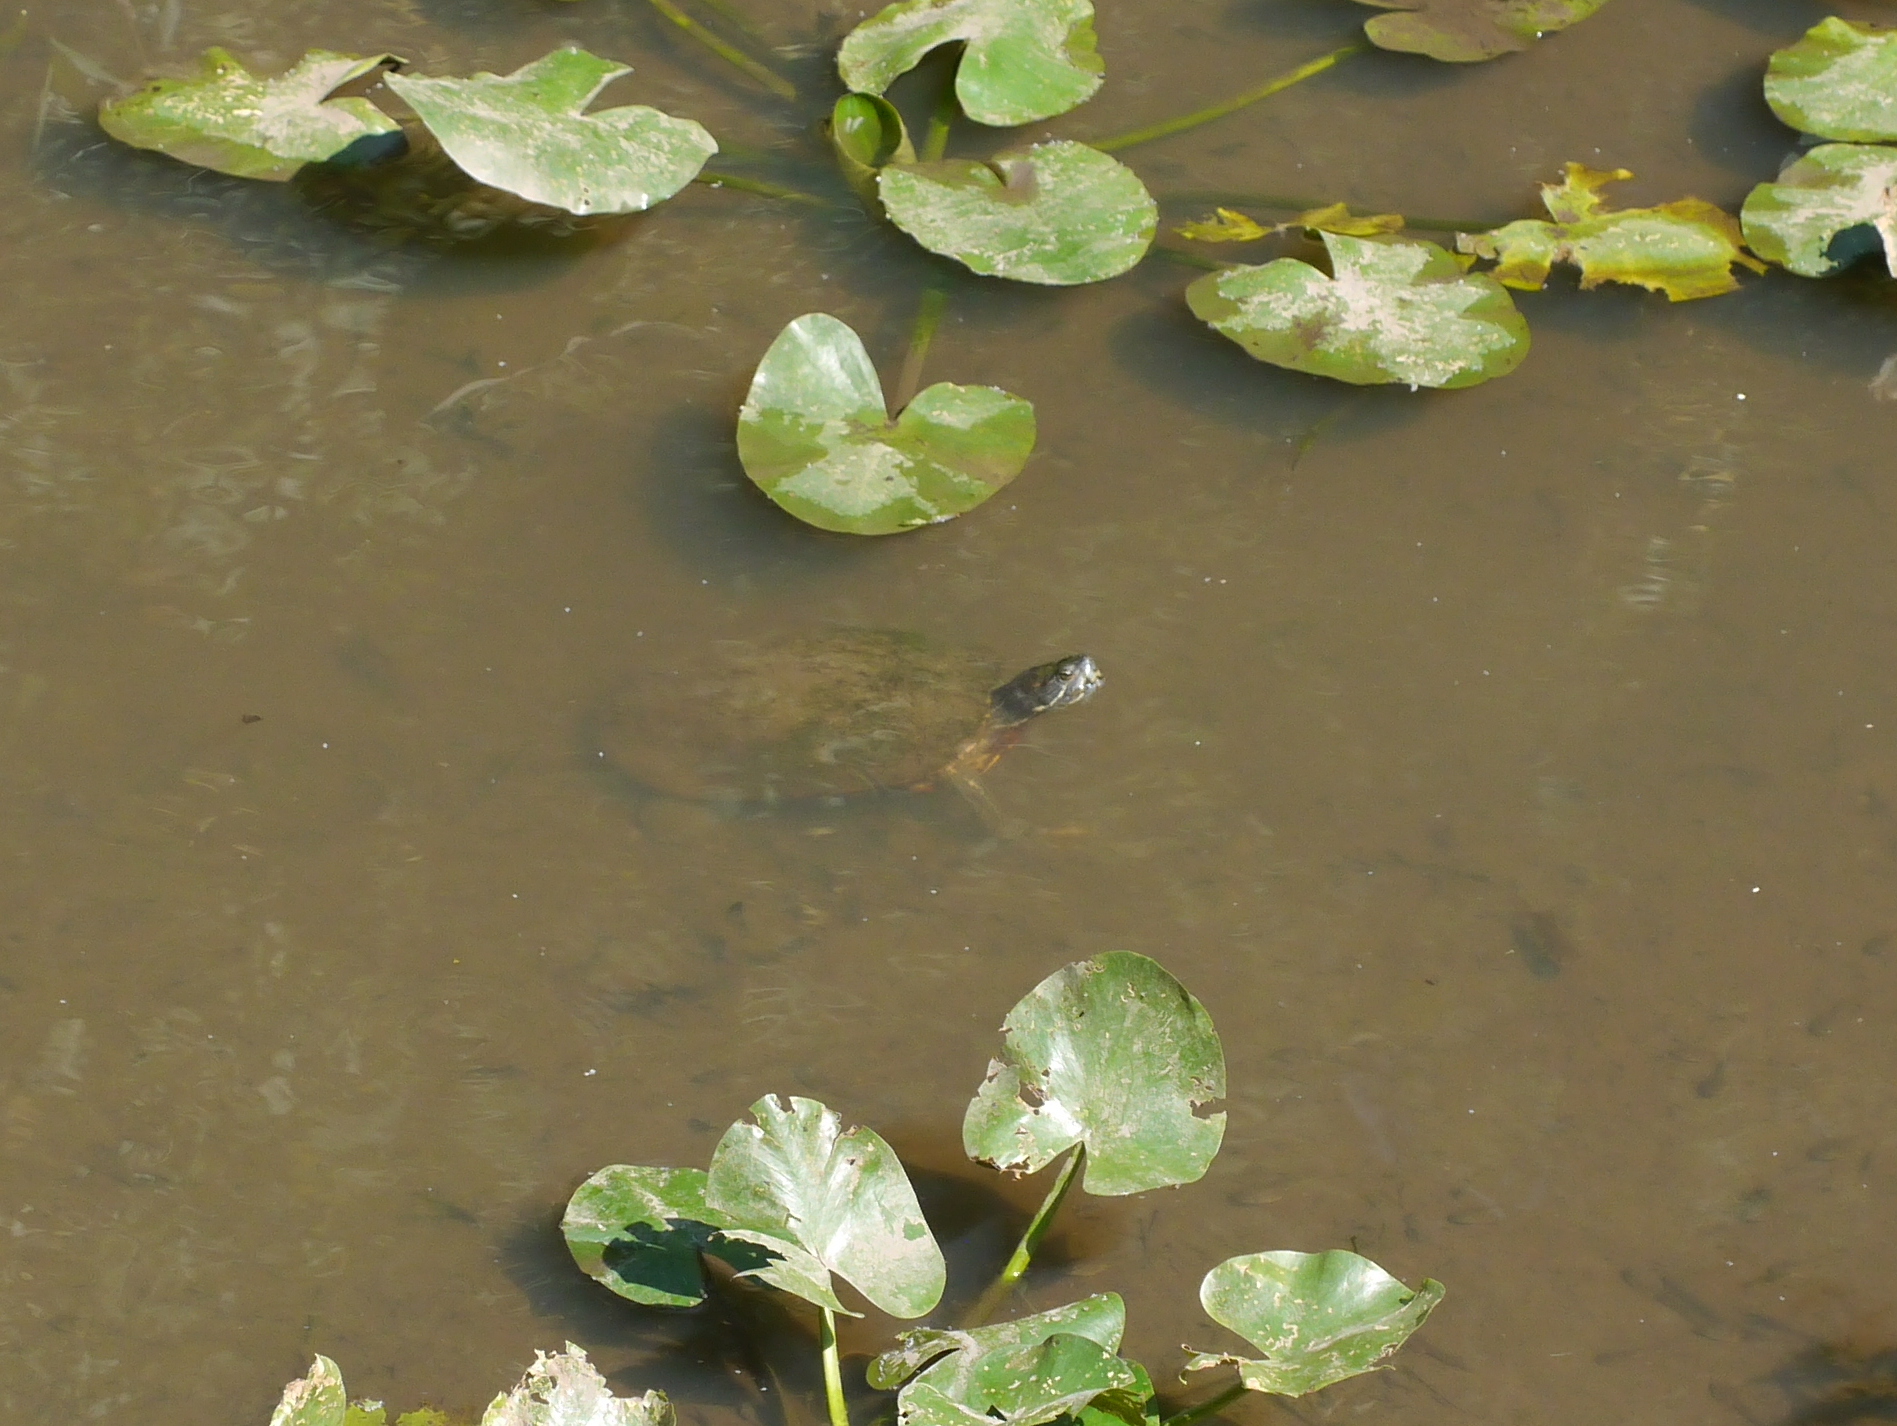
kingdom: Animalia
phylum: Chordata
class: Testudines
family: Emydidae
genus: Trachemys
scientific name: Trachemys scripta
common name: Slider
